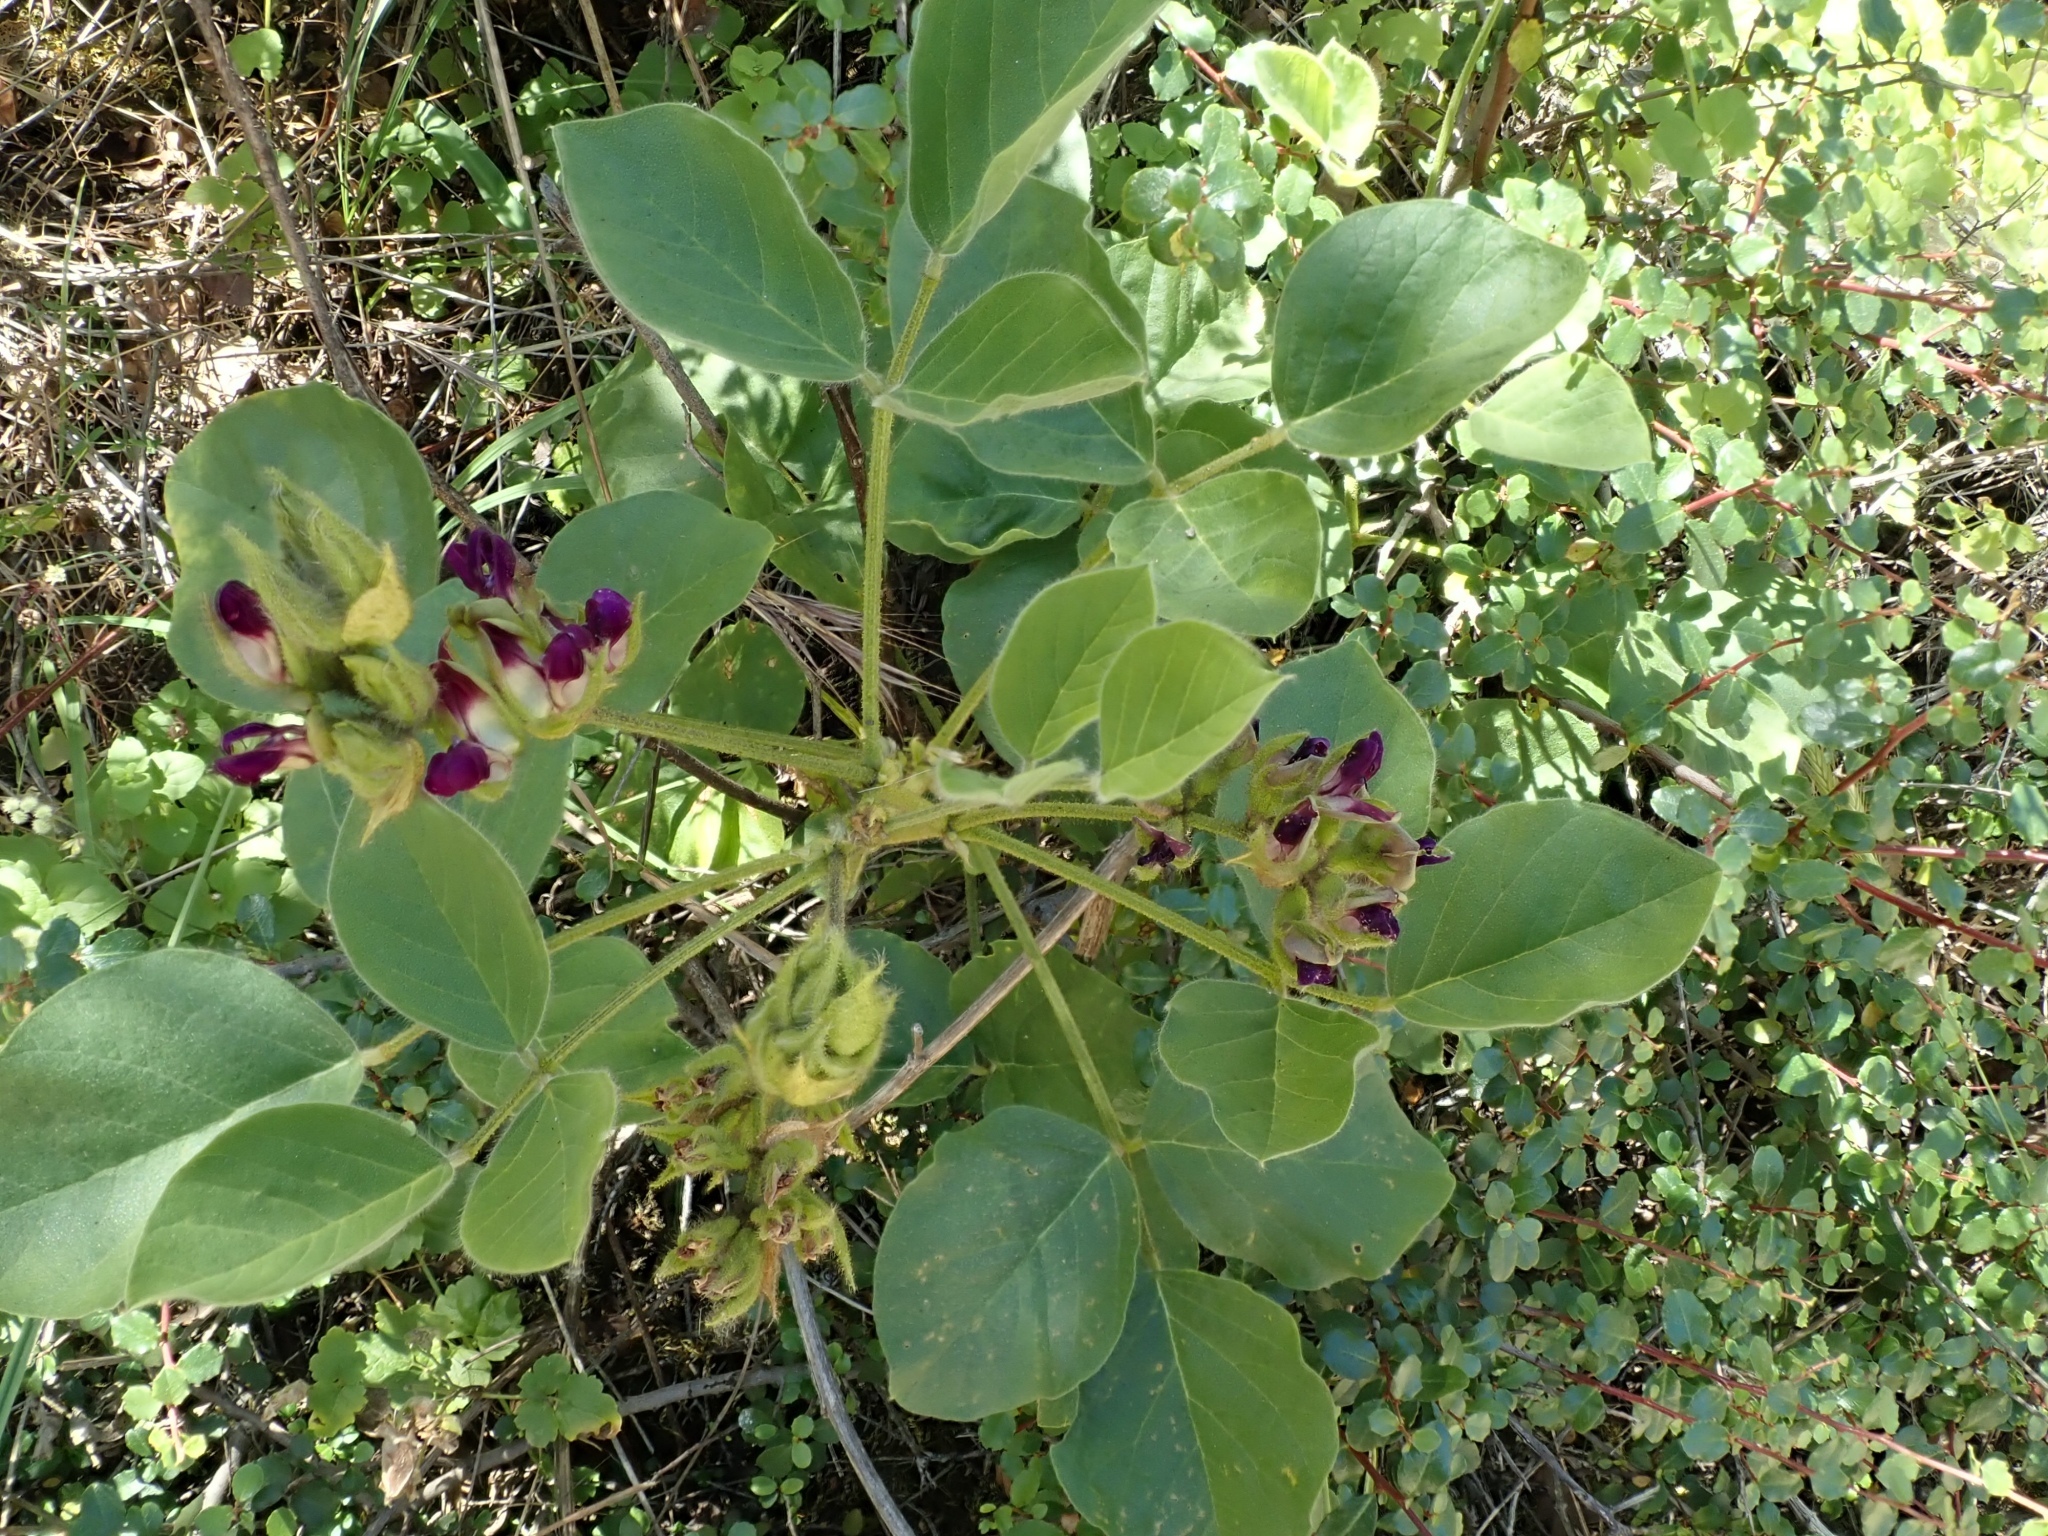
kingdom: Plantae
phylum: Tracheophyta
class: Magnoliopsida
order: Fabales
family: Fabaceae
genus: Hoita
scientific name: Hoita strobilina
